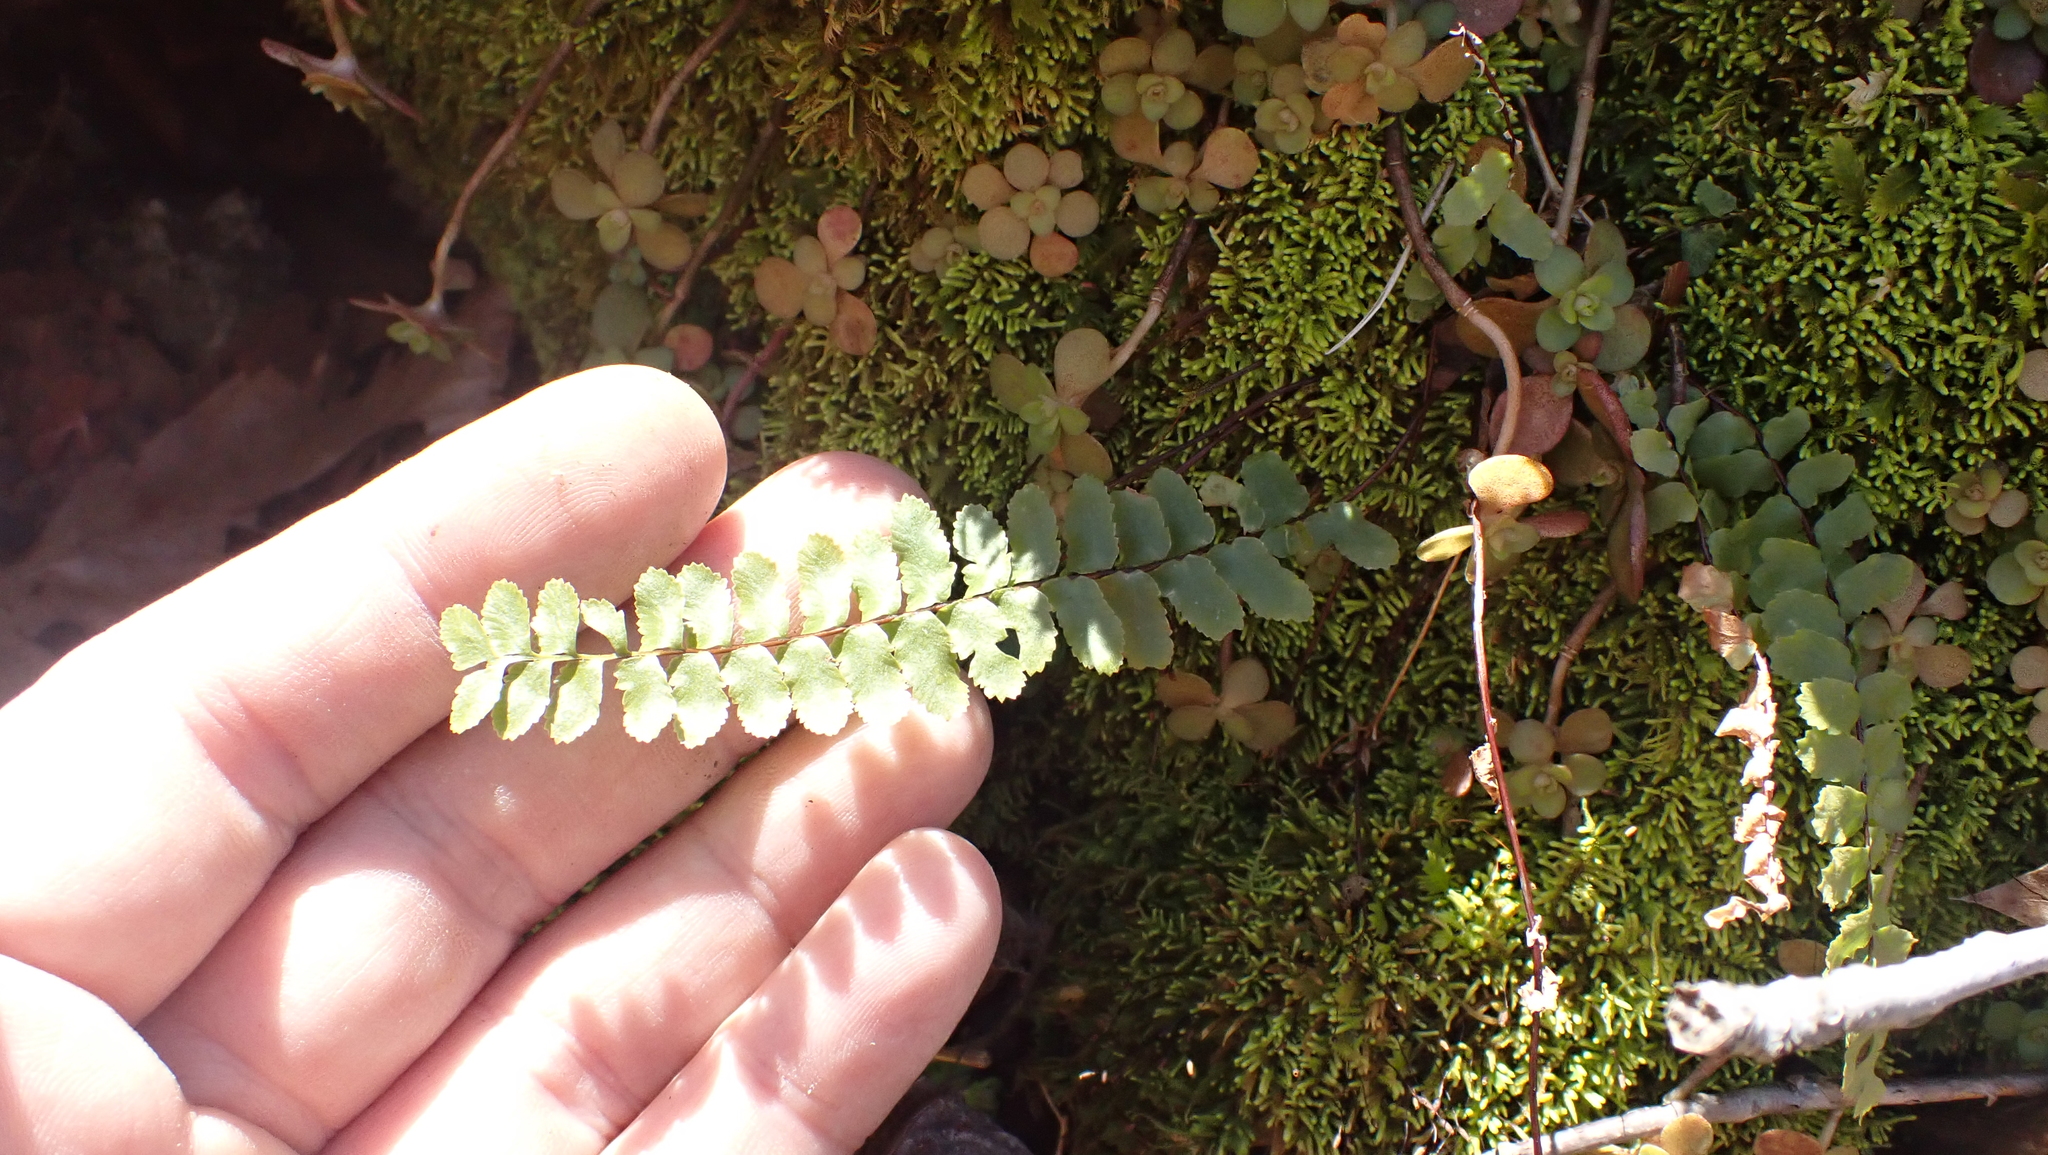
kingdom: Plantae
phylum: Tracheophyta
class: Polypodiopsida
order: Polypodiales
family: Aspleniaceae
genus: Asplenium
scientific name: Asplenium platyneuron
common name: Ebony spleenwort
